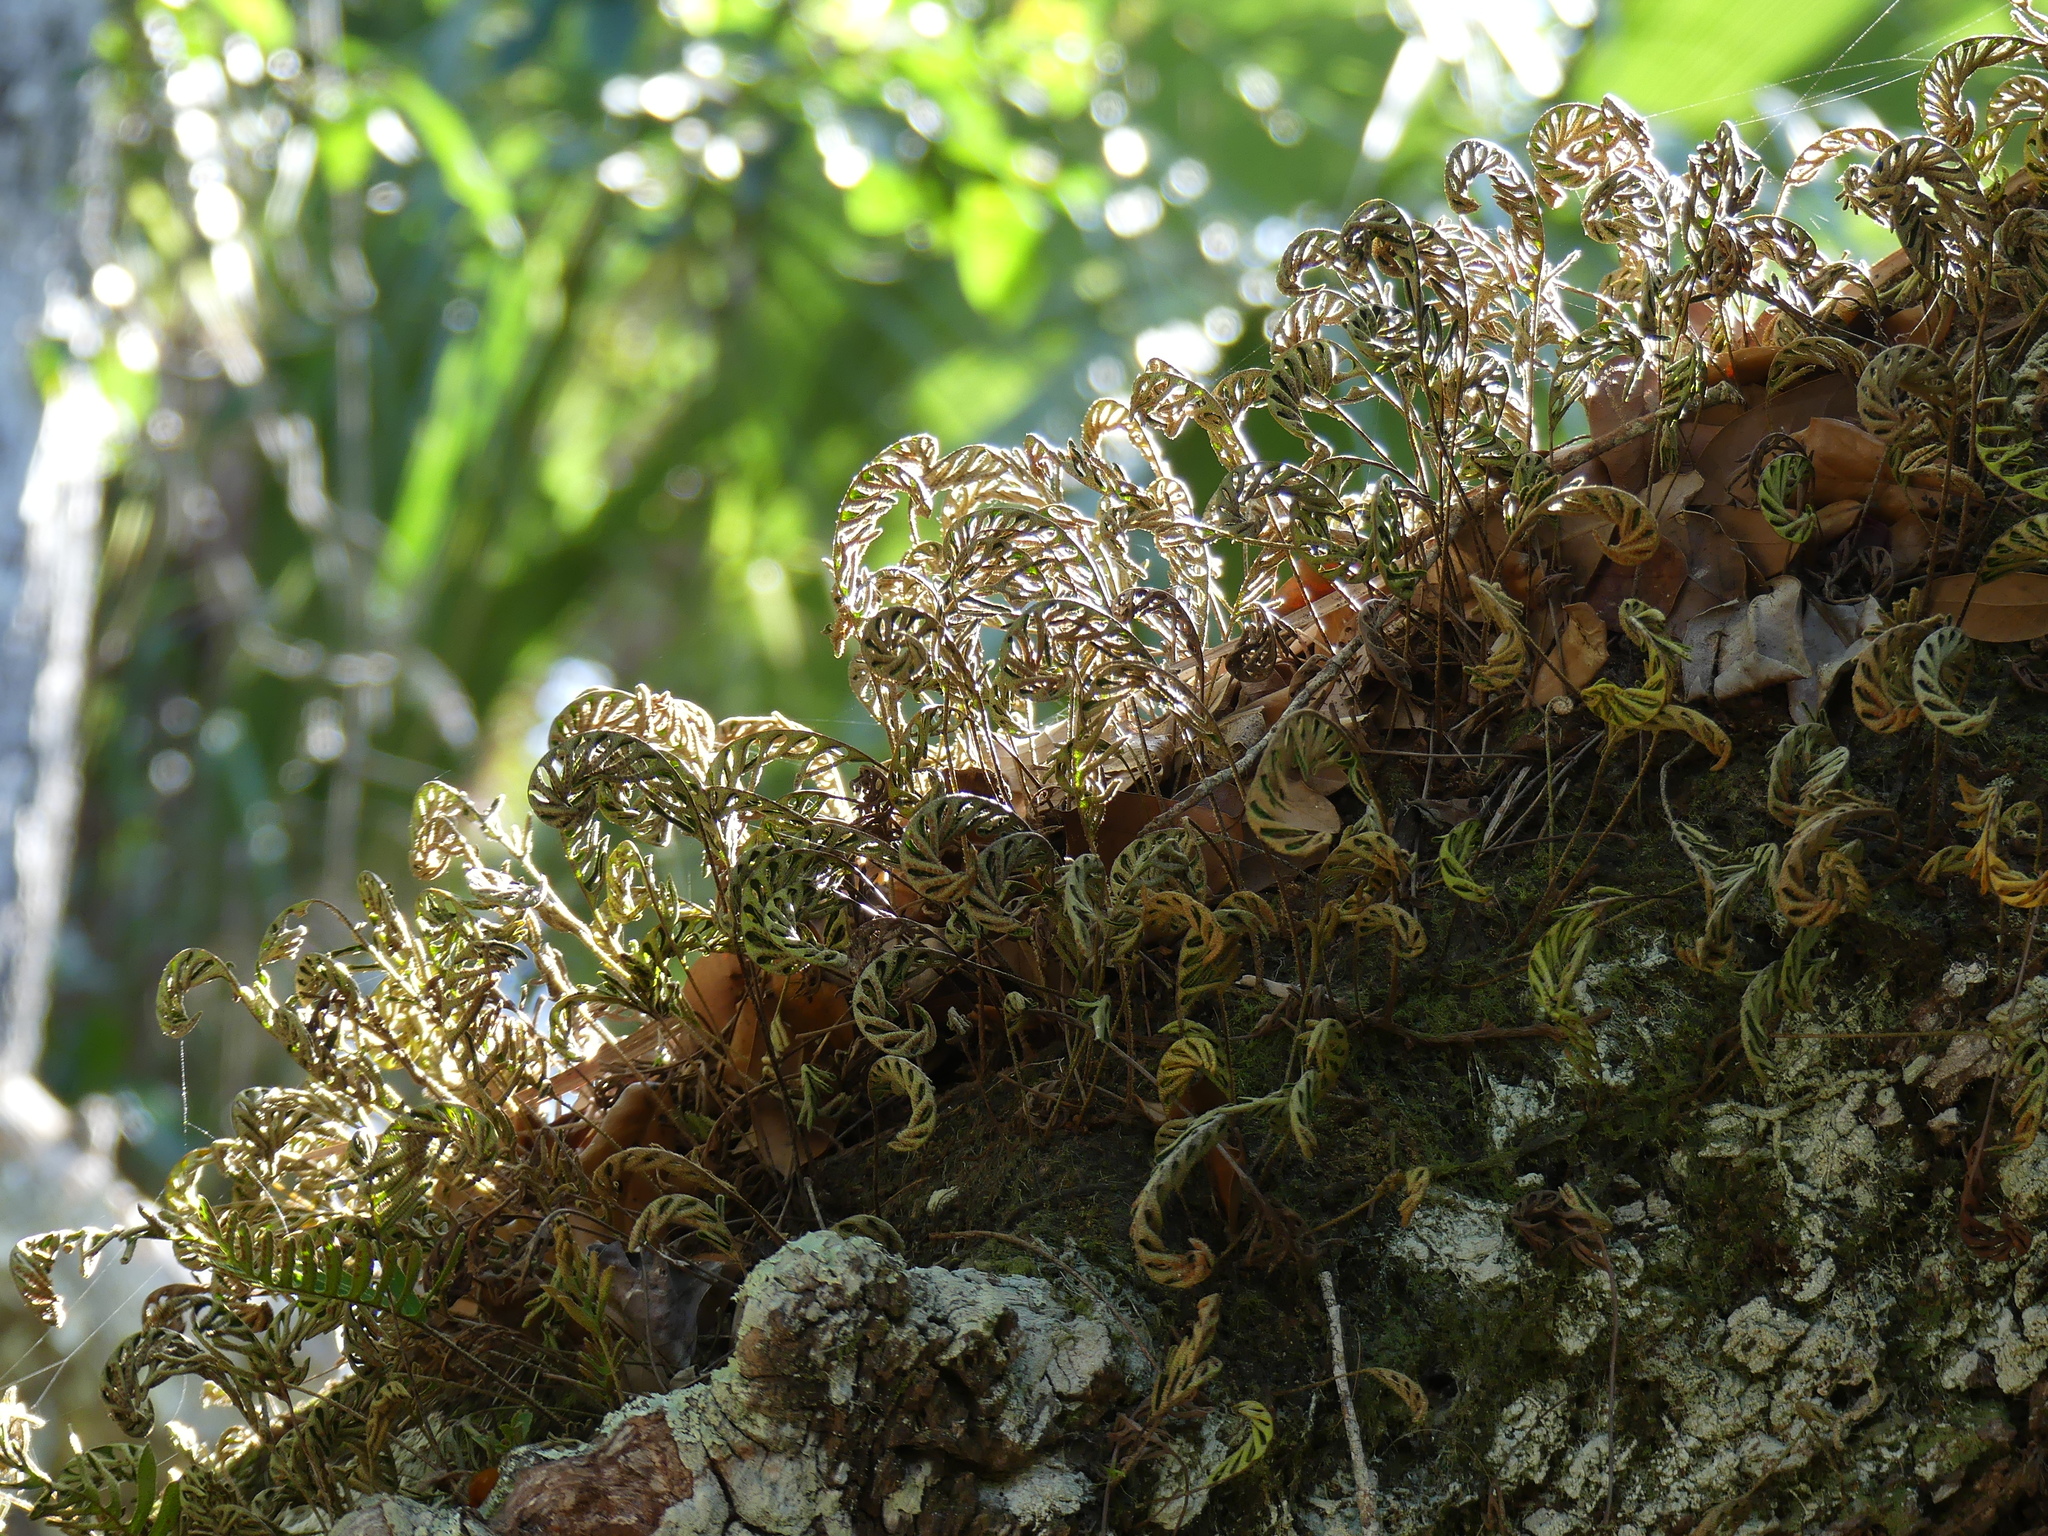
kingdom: Plantae
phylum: Tracheophyta
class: Polypodiopsida
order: Polypodiales
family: Polypodiaceae
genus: Pleopeltis
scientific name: Pleopeltis michauxiana
